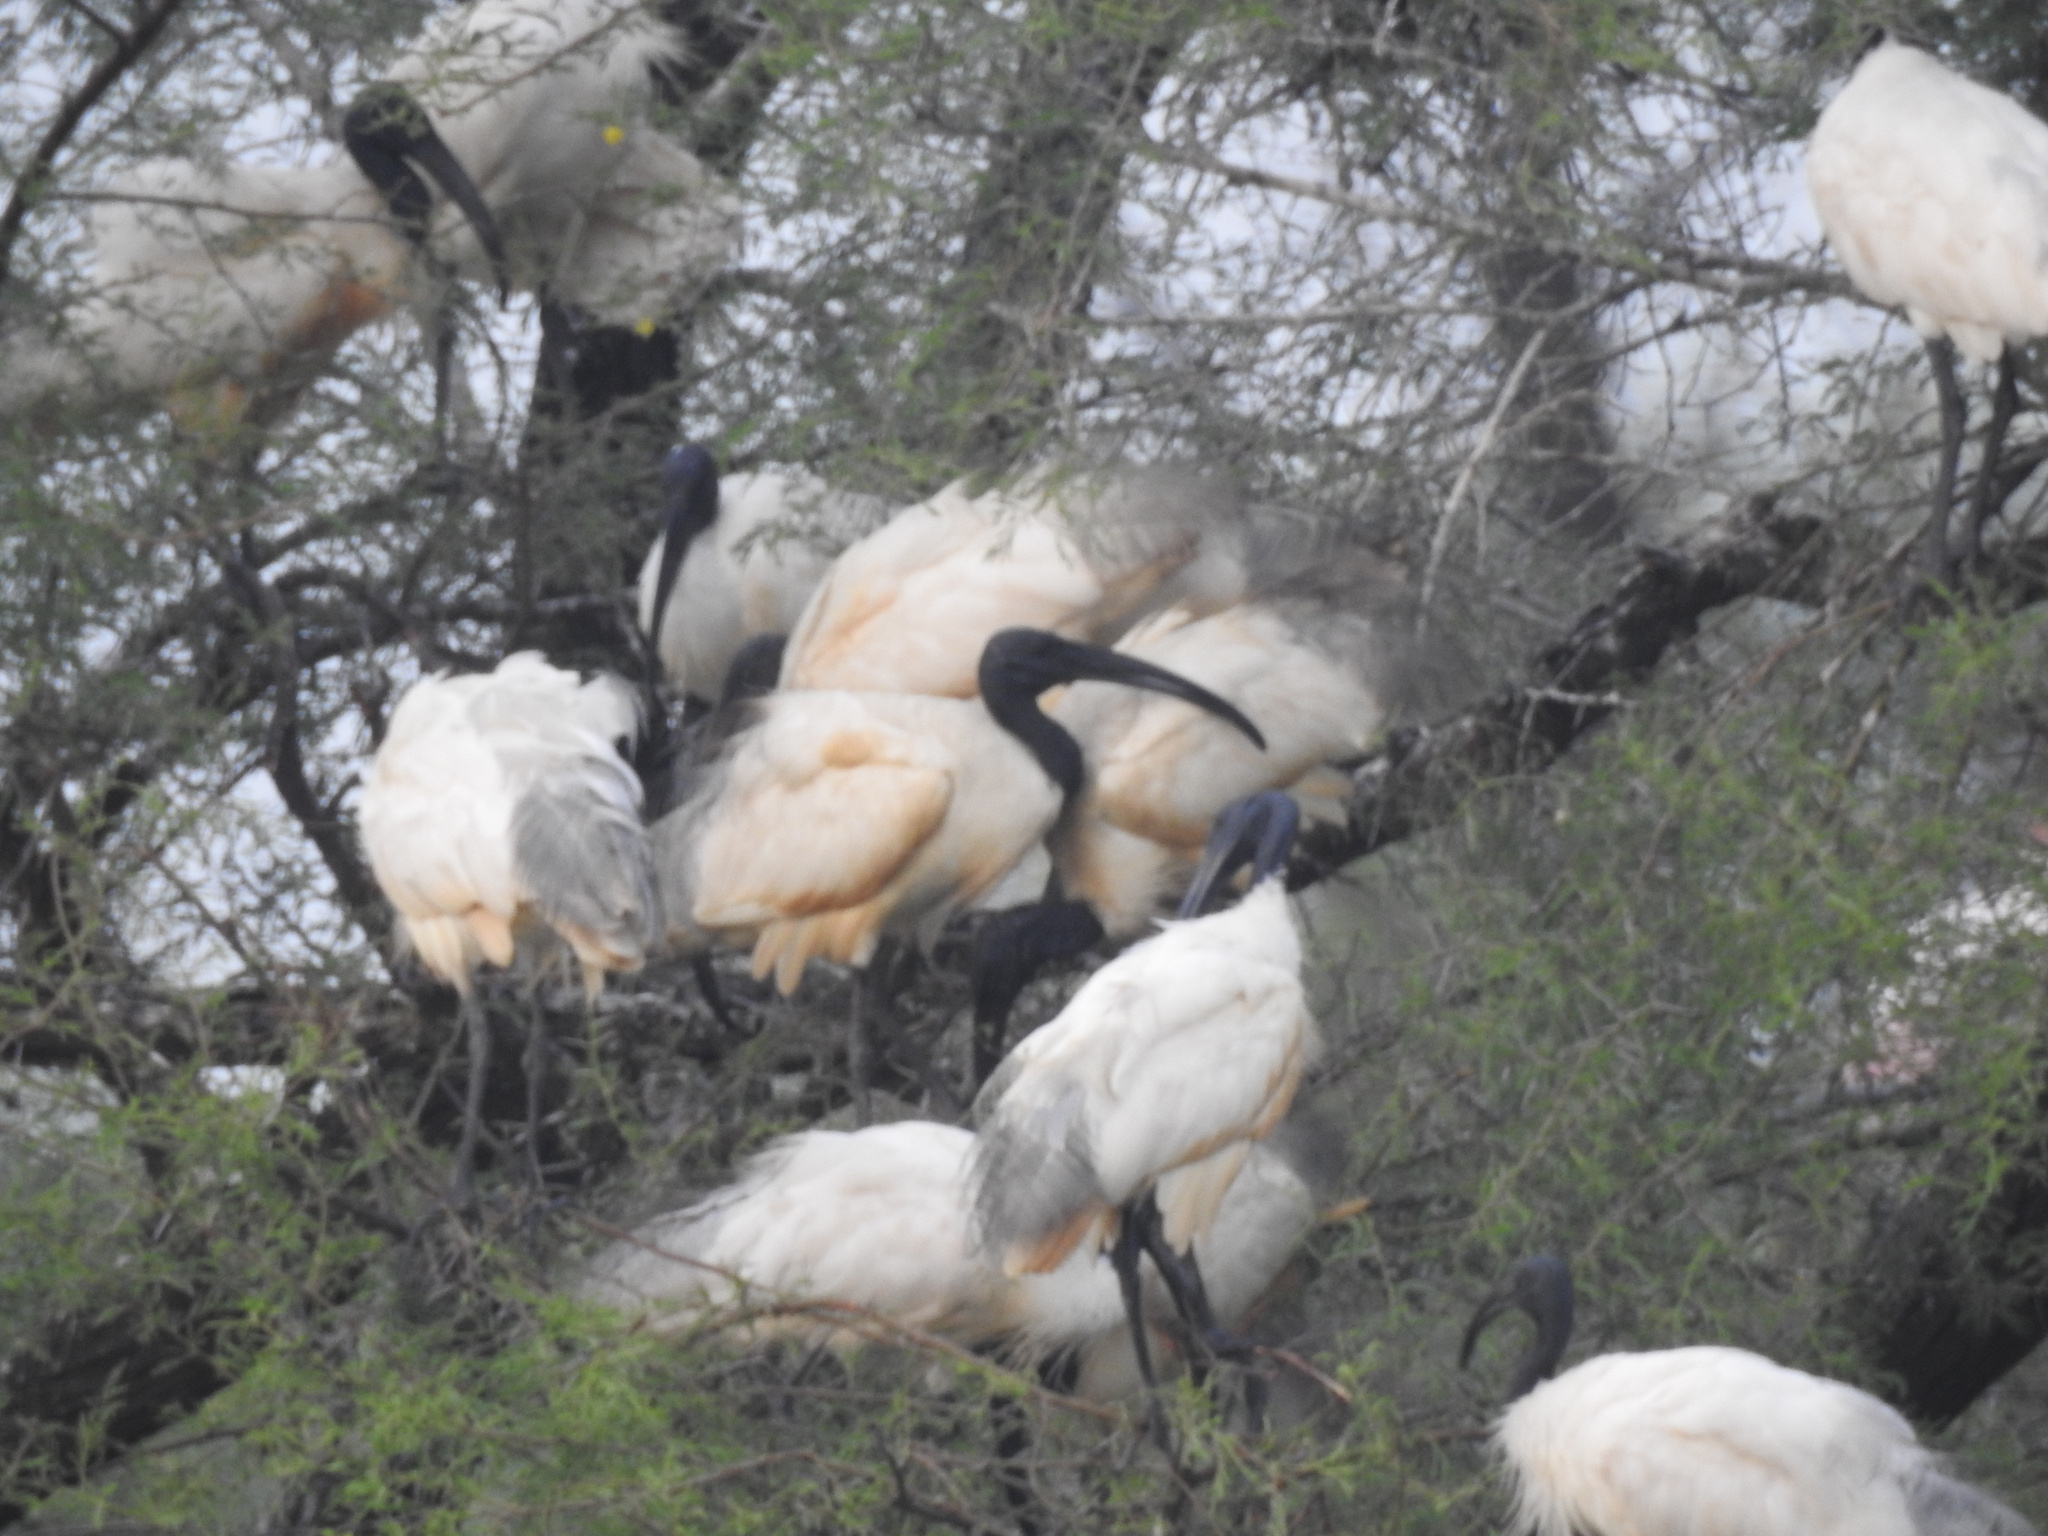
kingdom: Animalia
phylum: Chordata
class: Aves
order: Pelecaniformes
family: Threskiornithidae
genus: Threskiornis
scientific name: Threskiornis melanocephalus
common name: Black-headed ibis
